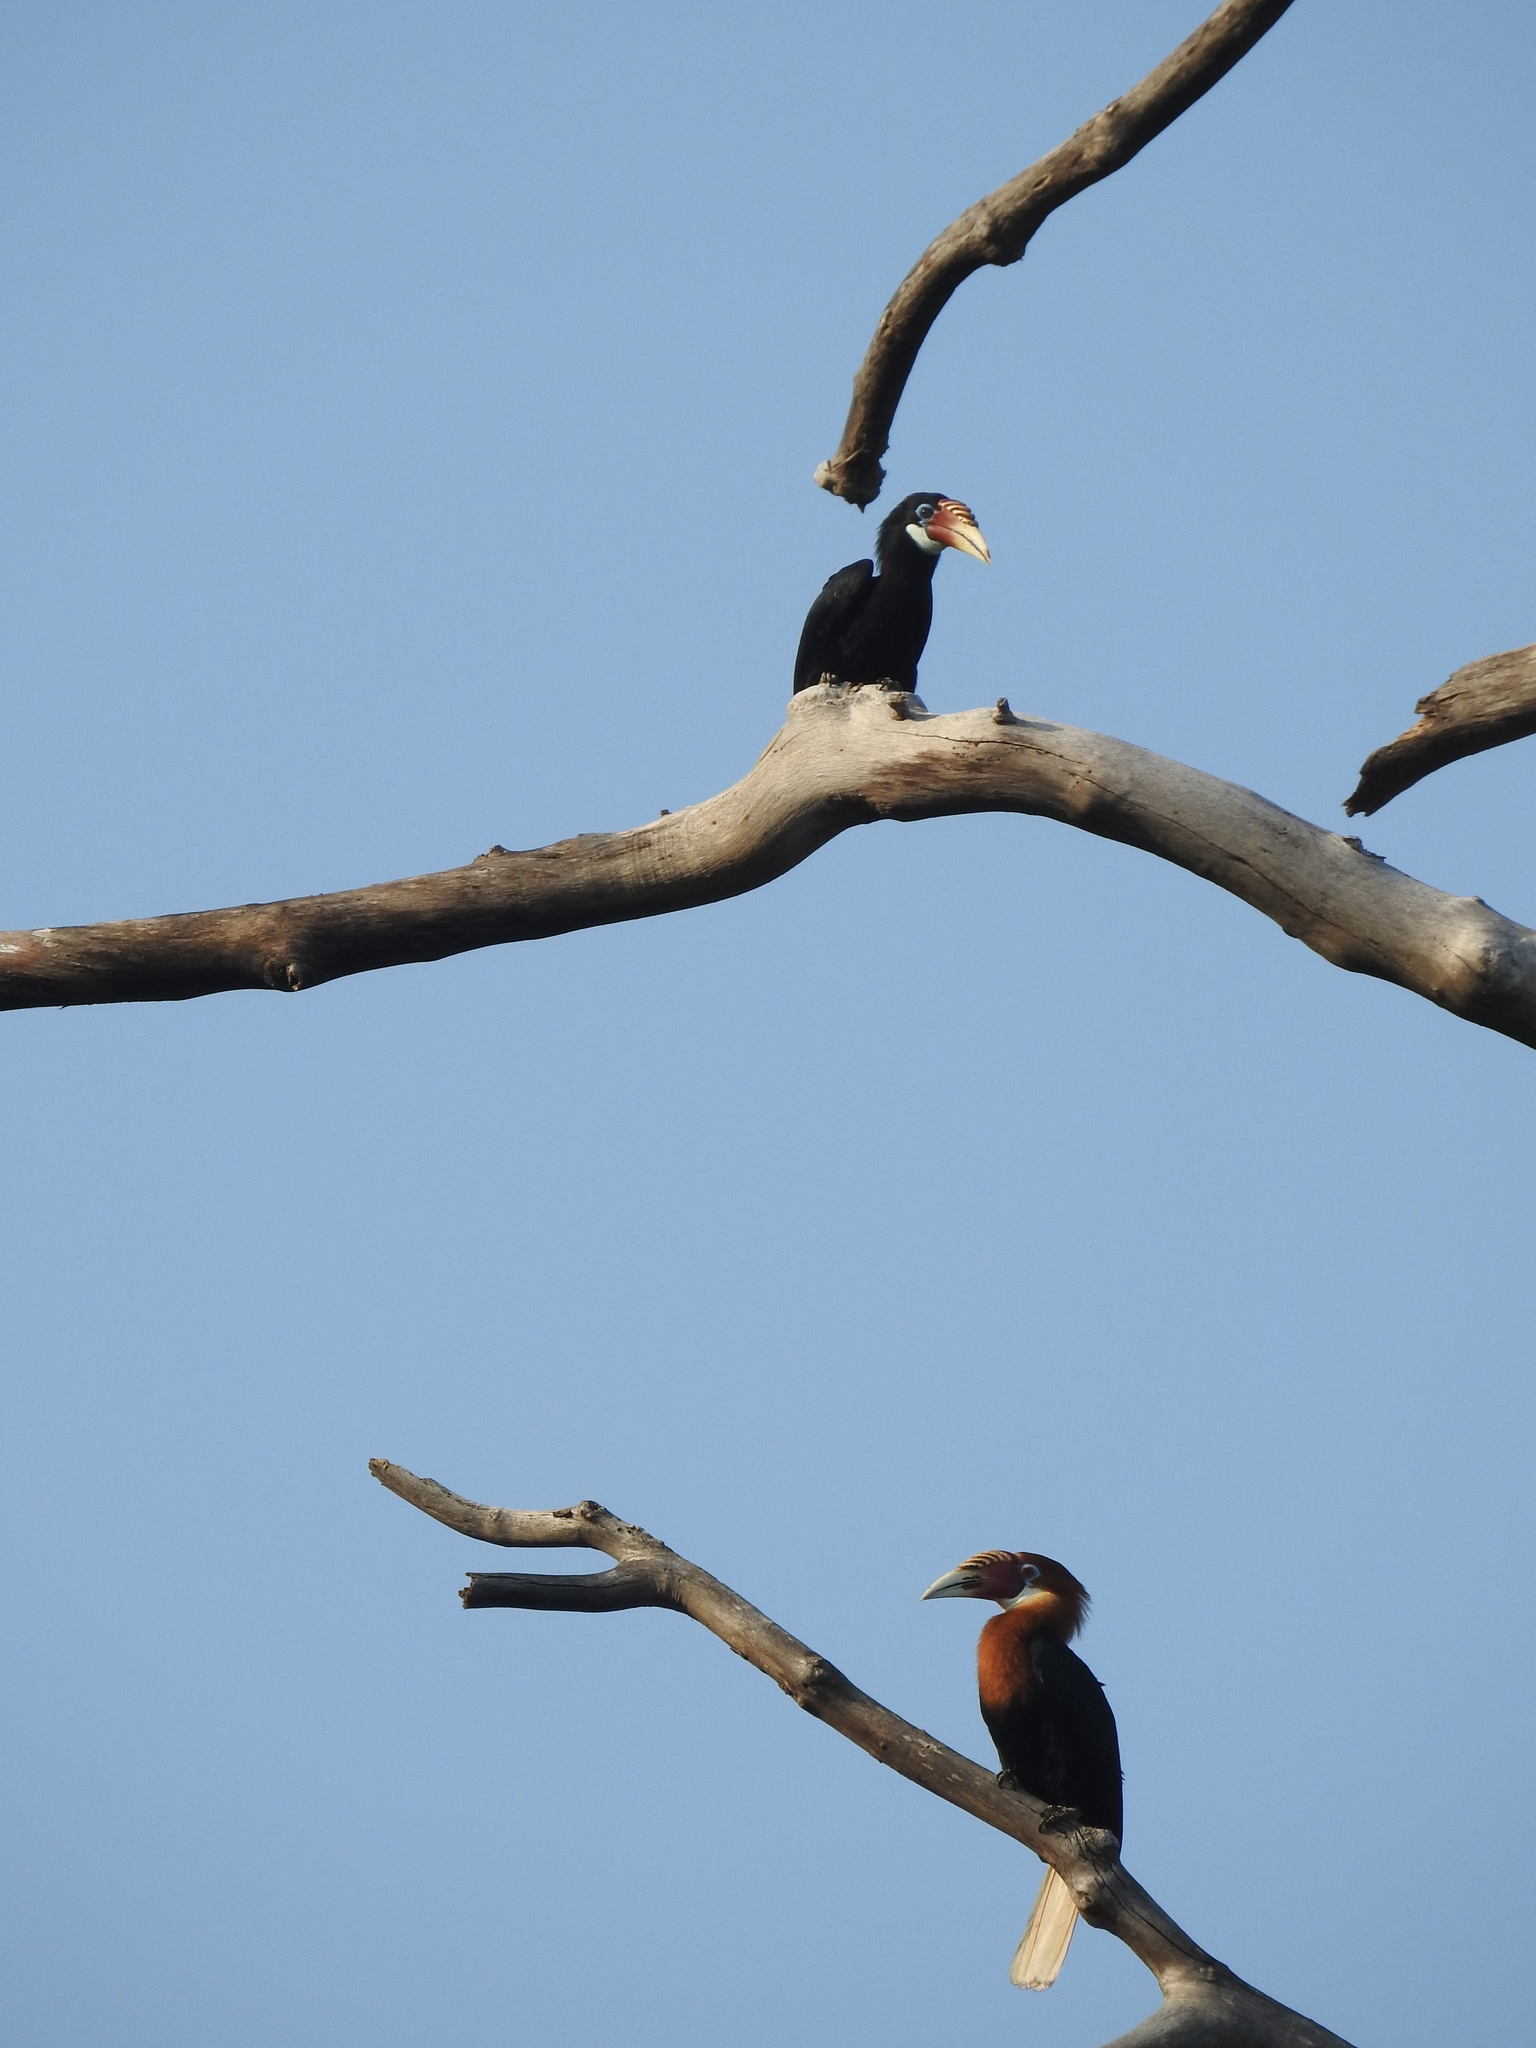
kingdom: Animalia
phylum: Chordata
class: Aves
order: Bucerotiformes
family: Bucerotidae
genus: Rhyticeros
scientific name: Rhyticeros narcondami
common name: Narcondam hornbill
